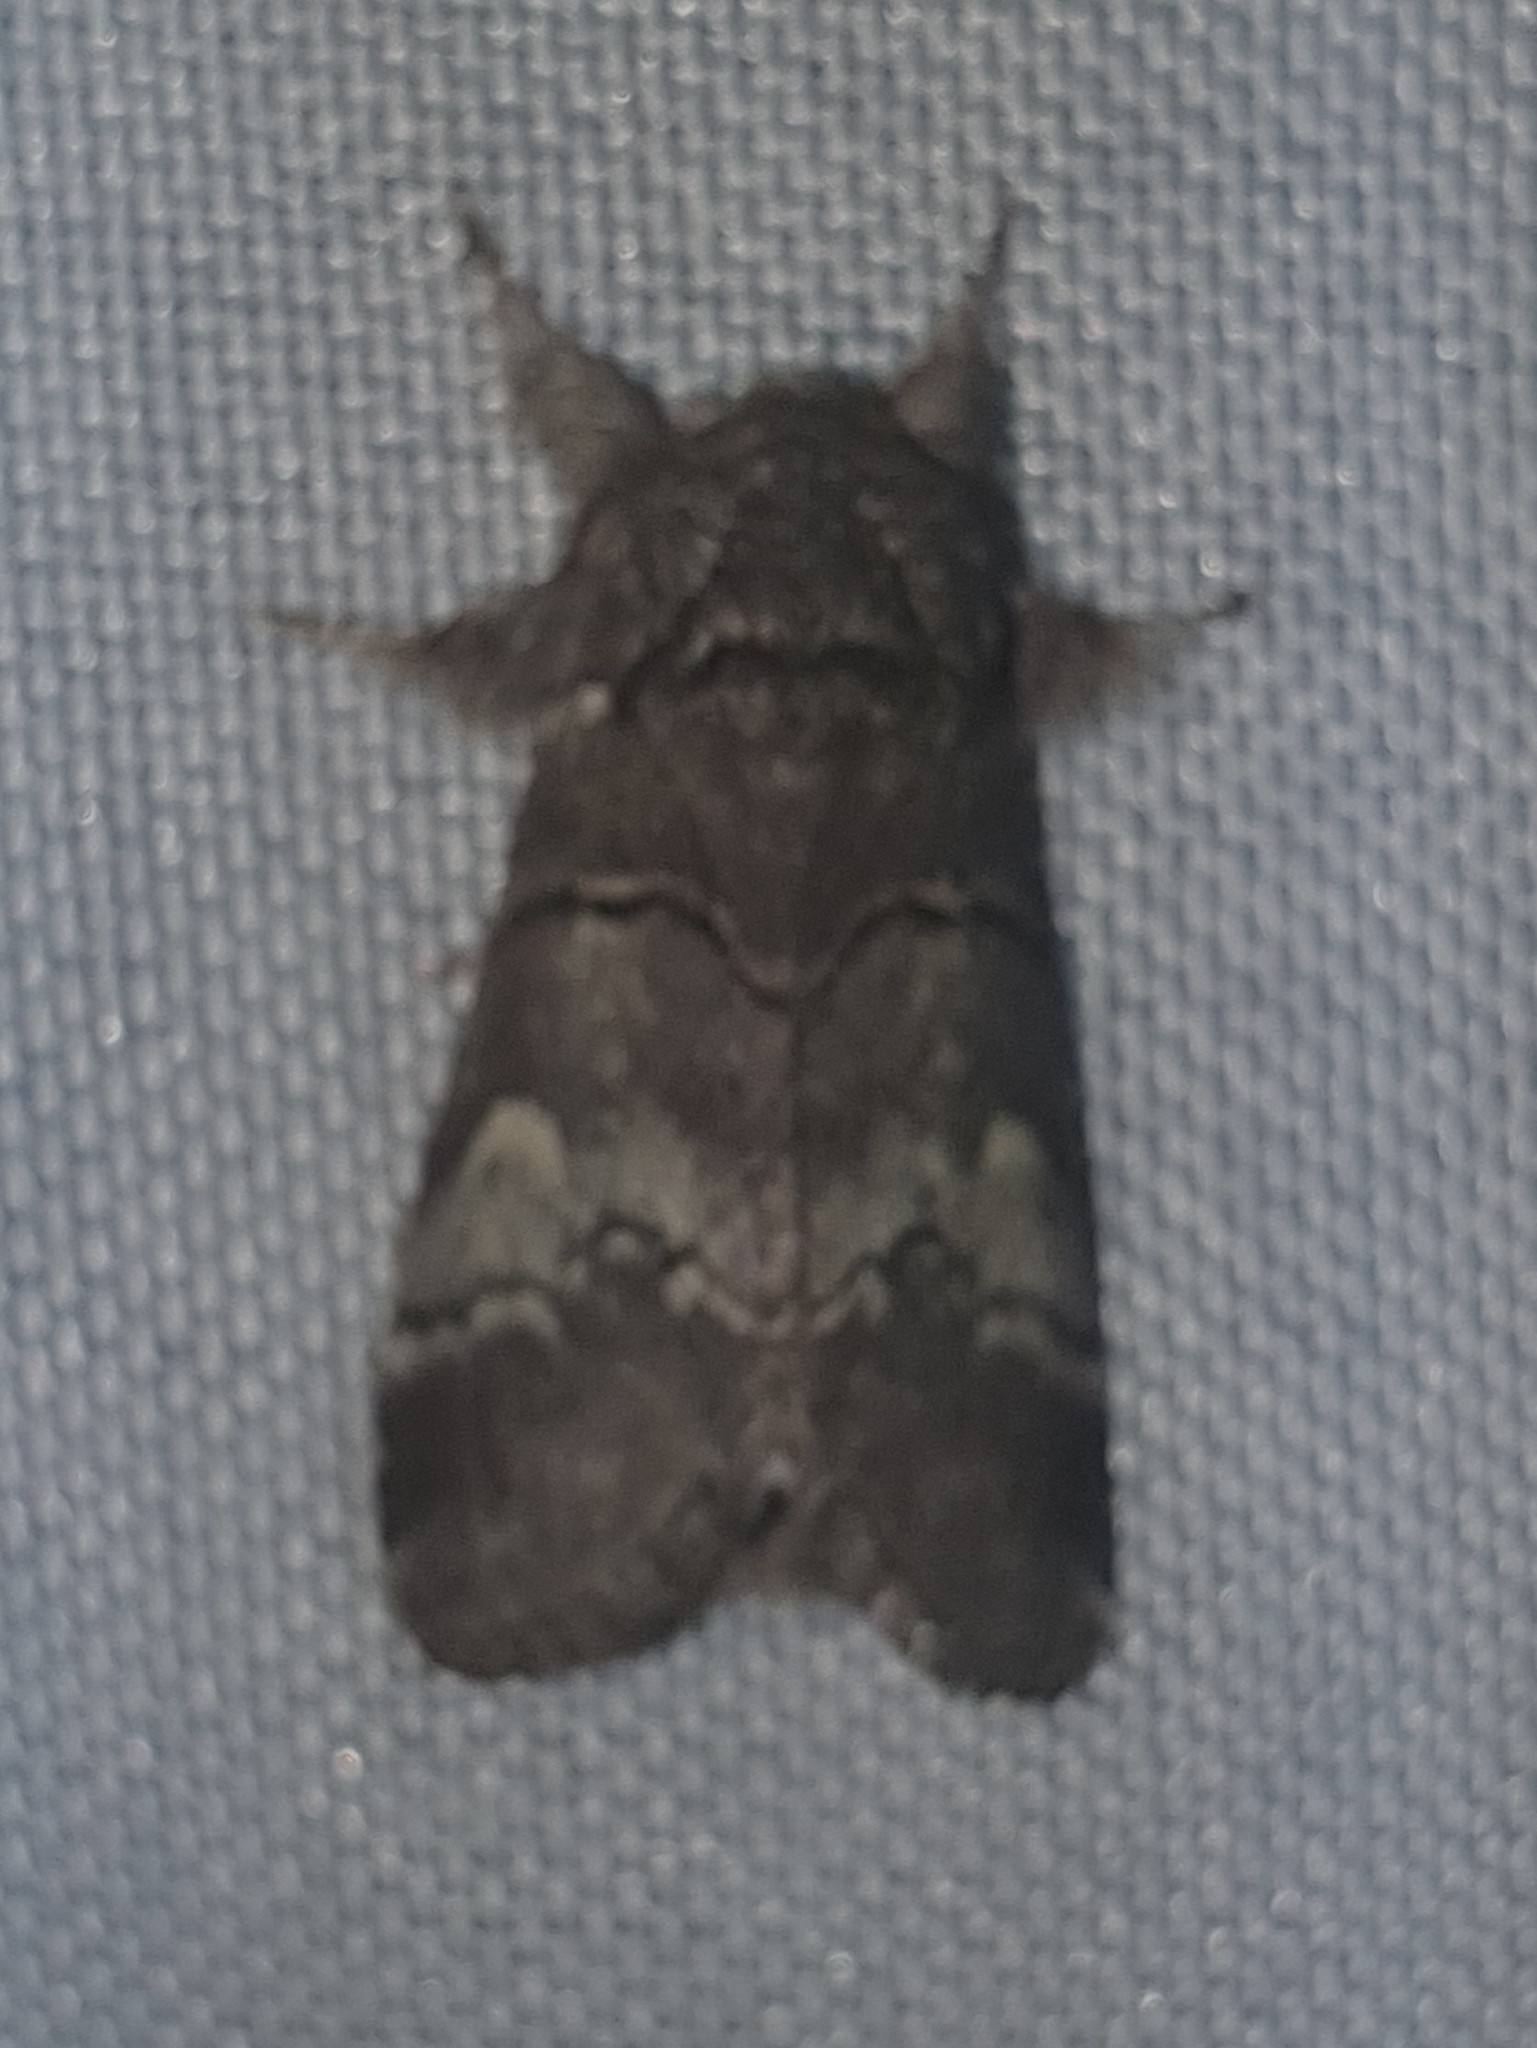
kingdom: Animalia
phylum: Arthropoda
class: Insecta
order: Lepidoptera
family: Notodontidae
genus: Drymonia
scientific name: Drymonia querna
